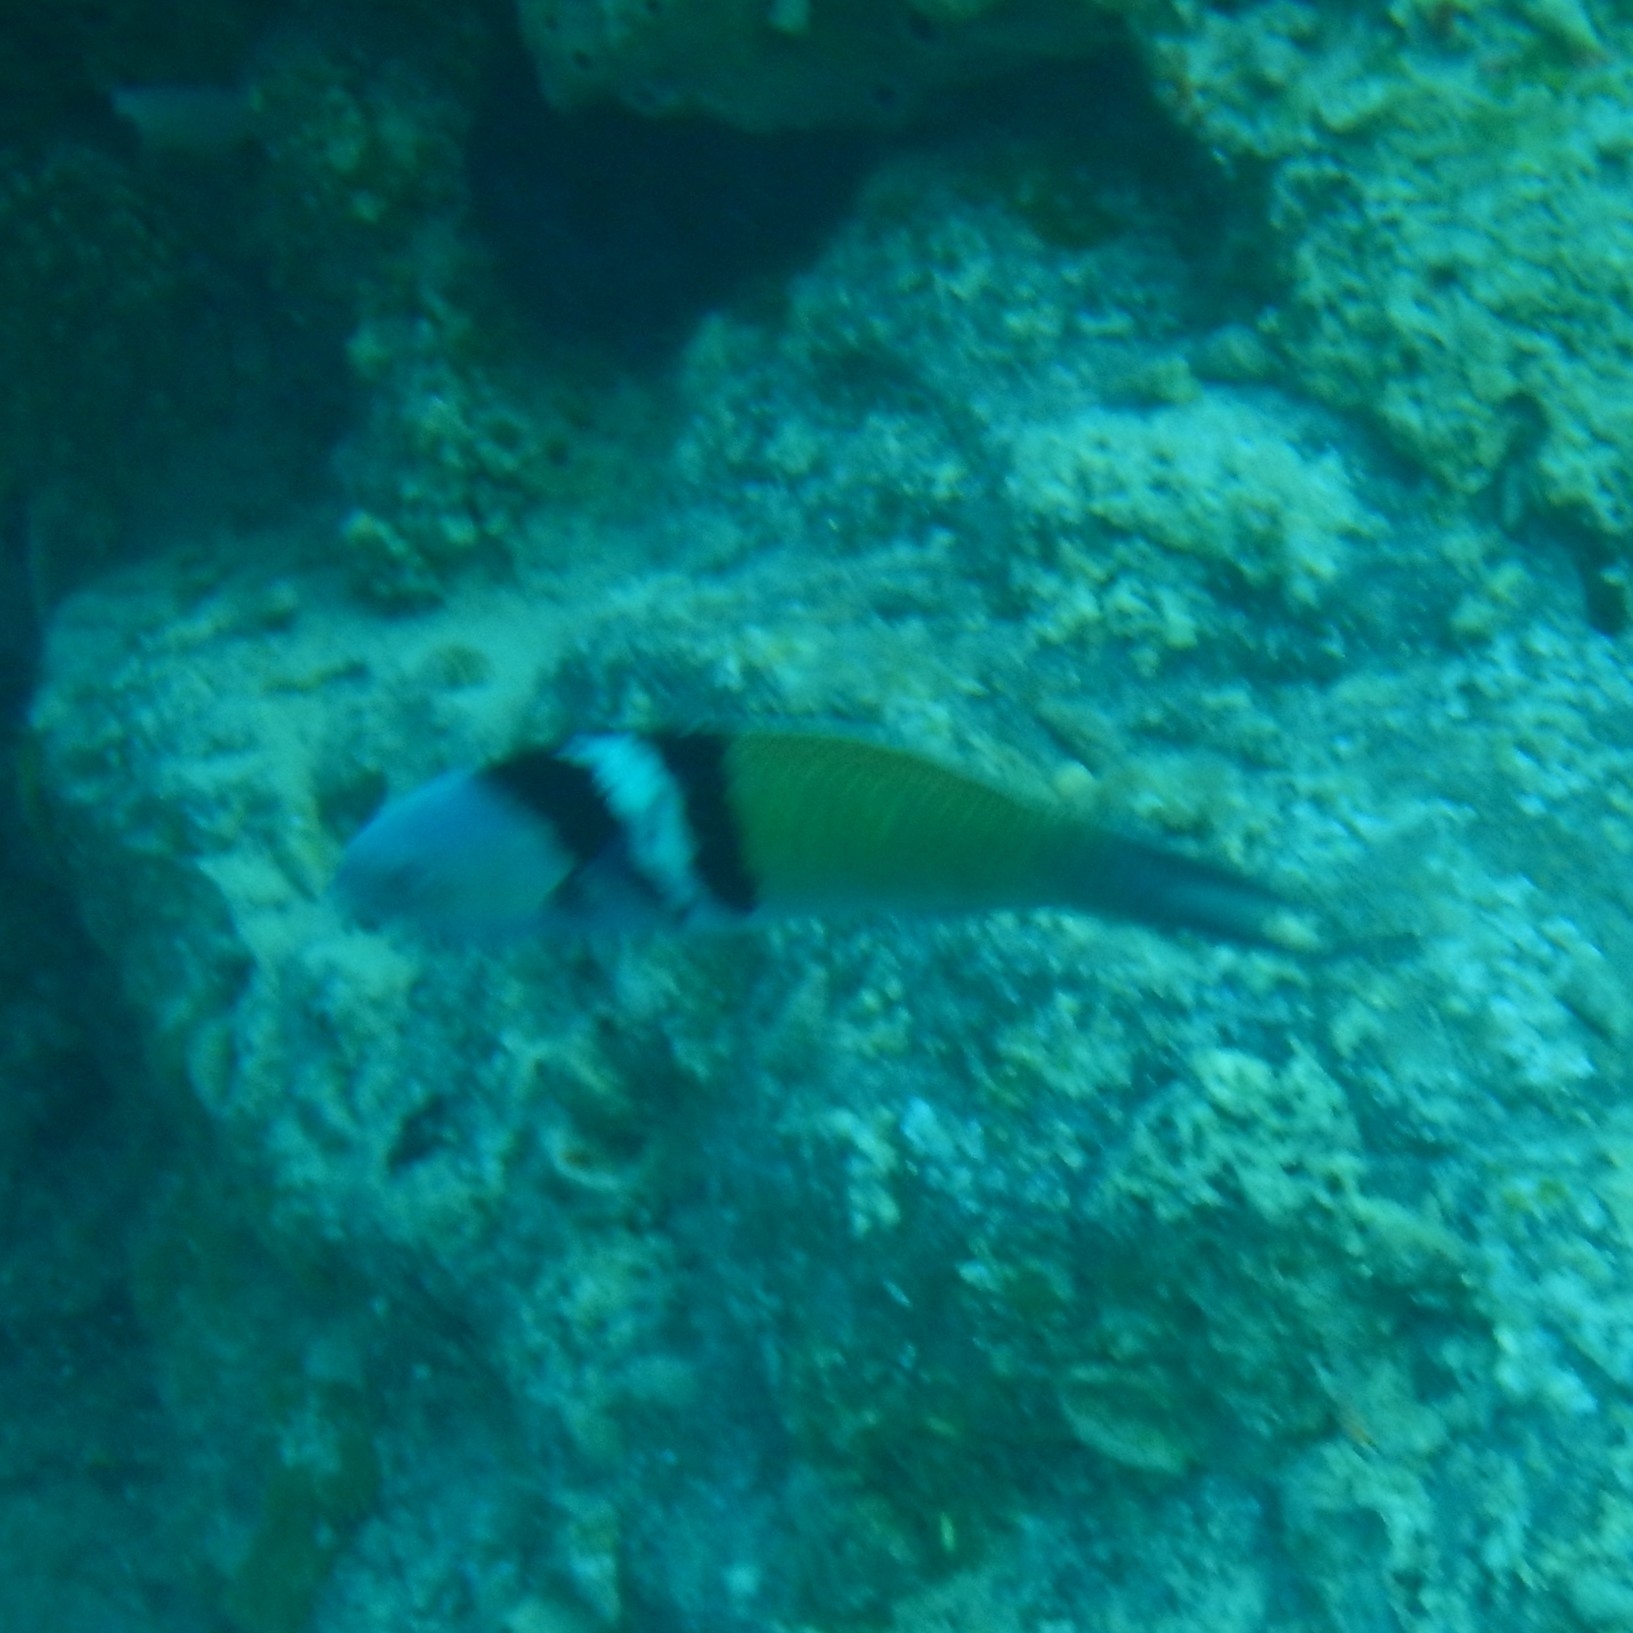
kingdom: Animalia
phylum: Chordata
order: Perciformes
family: Labridae
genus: Thalassoma
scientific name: Thalassoma bifasciatum
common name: Bluehead wrasse
